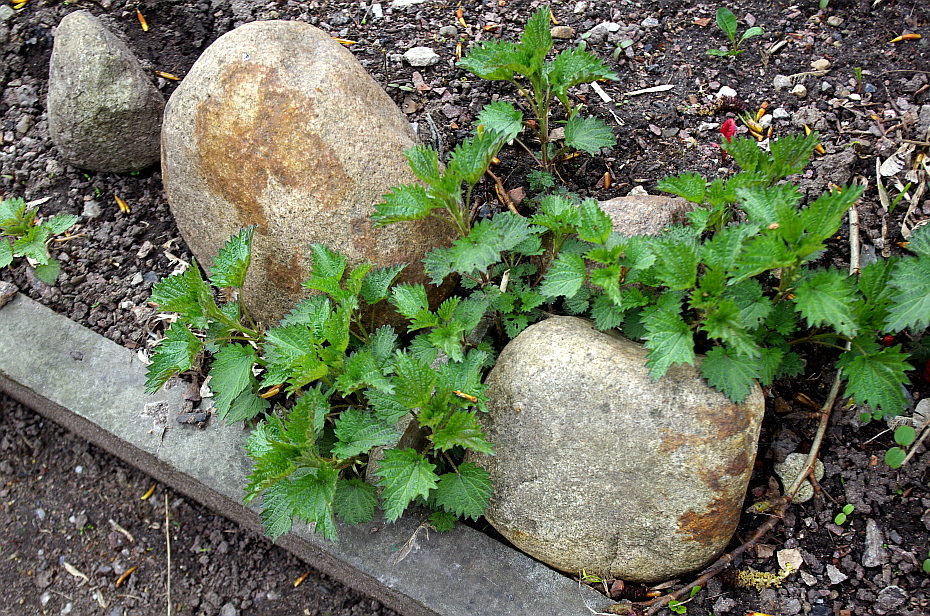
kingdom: Plantae
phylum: Tracheophyta
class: Magnoliopsida
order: Rosales
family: Urticaceae
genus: Urtica
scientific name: Urtica dioica
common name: Common nettle
